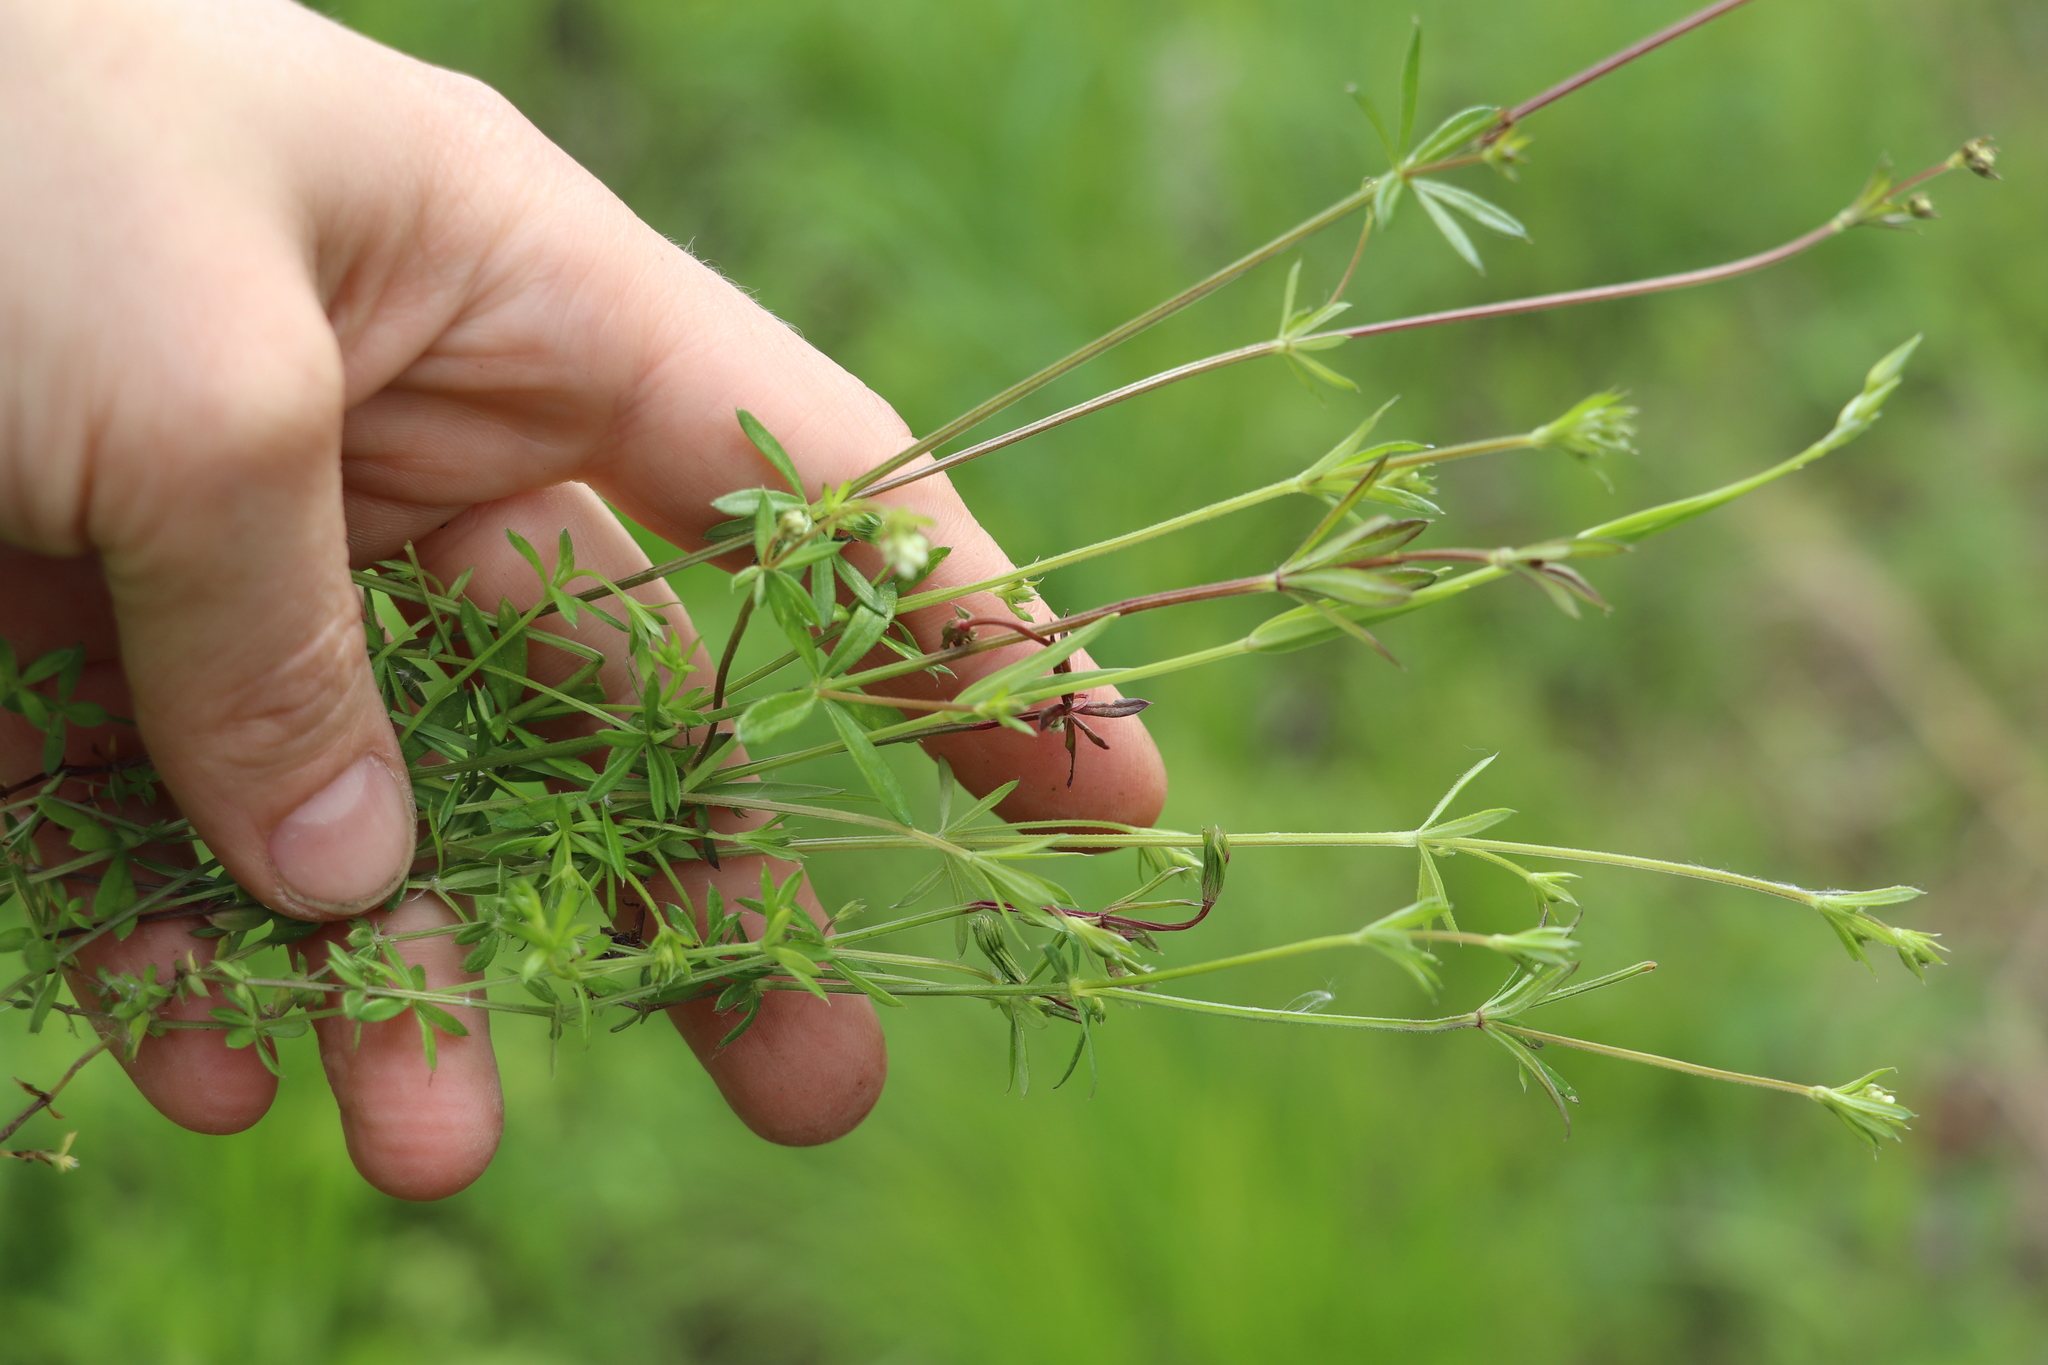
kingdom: Plantae
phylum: Tracheophyta
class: Magnoliopsida
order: Gentianales
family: Rubiaceae
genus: Galium
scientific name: Galium uliginosum
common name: Fen bedstraw
